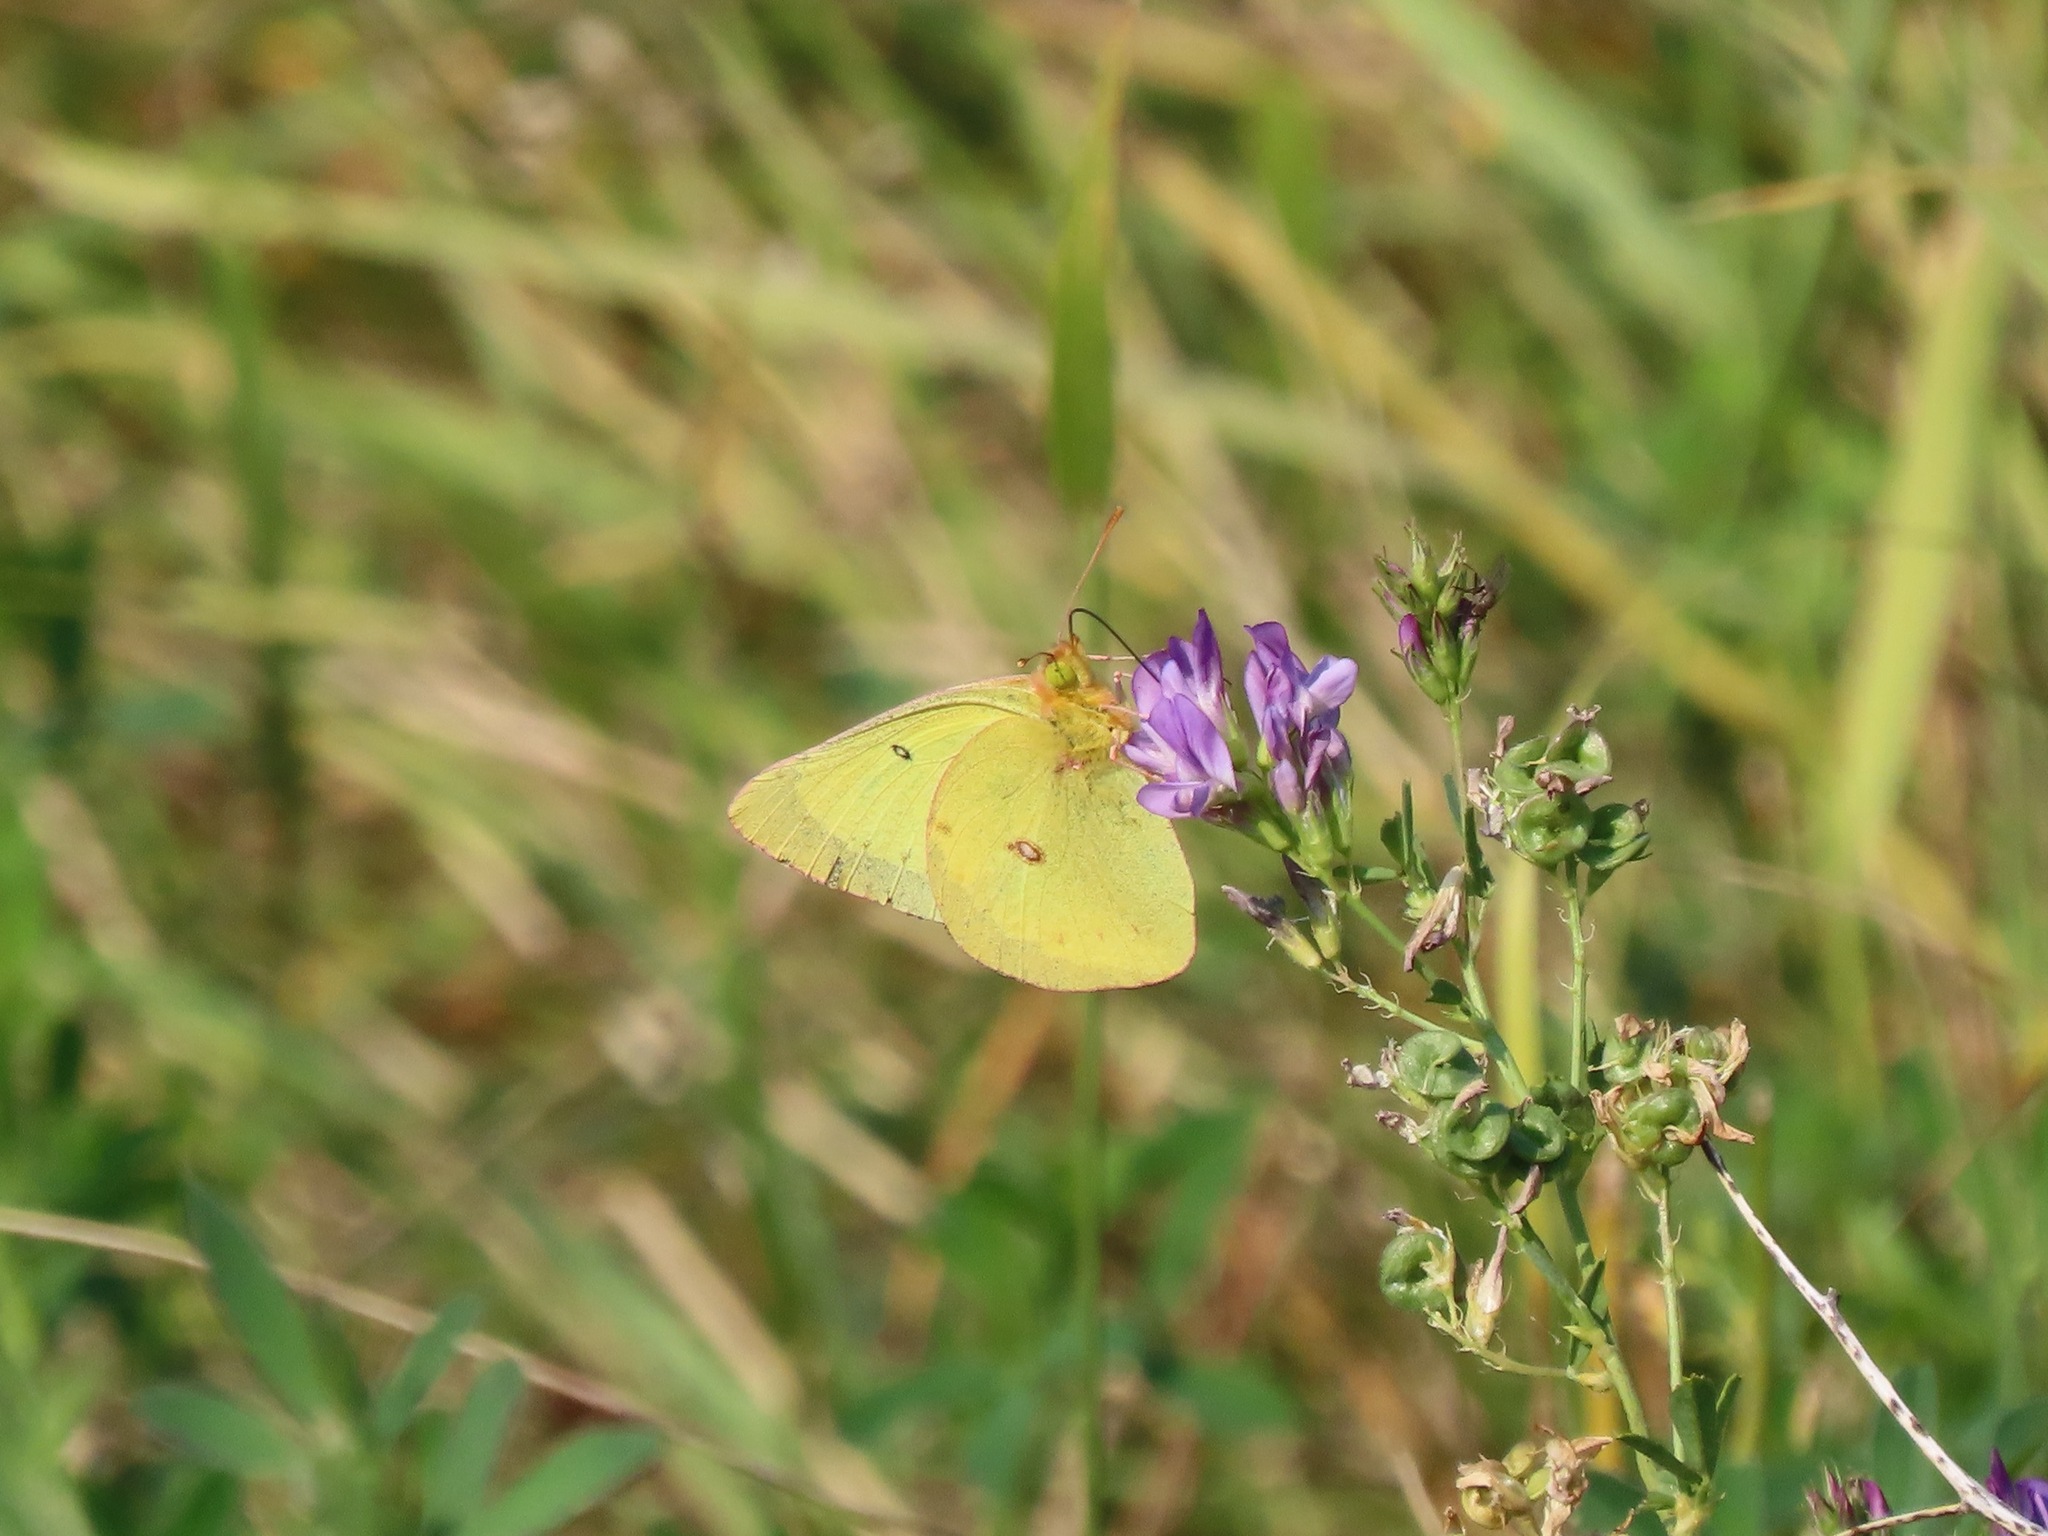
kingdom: Animalia
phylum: Arthropoda
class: Insecta
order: Lepidoptera
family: Pieridae
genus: Colias
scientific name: Colias philodice
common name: Clouded sulphur
